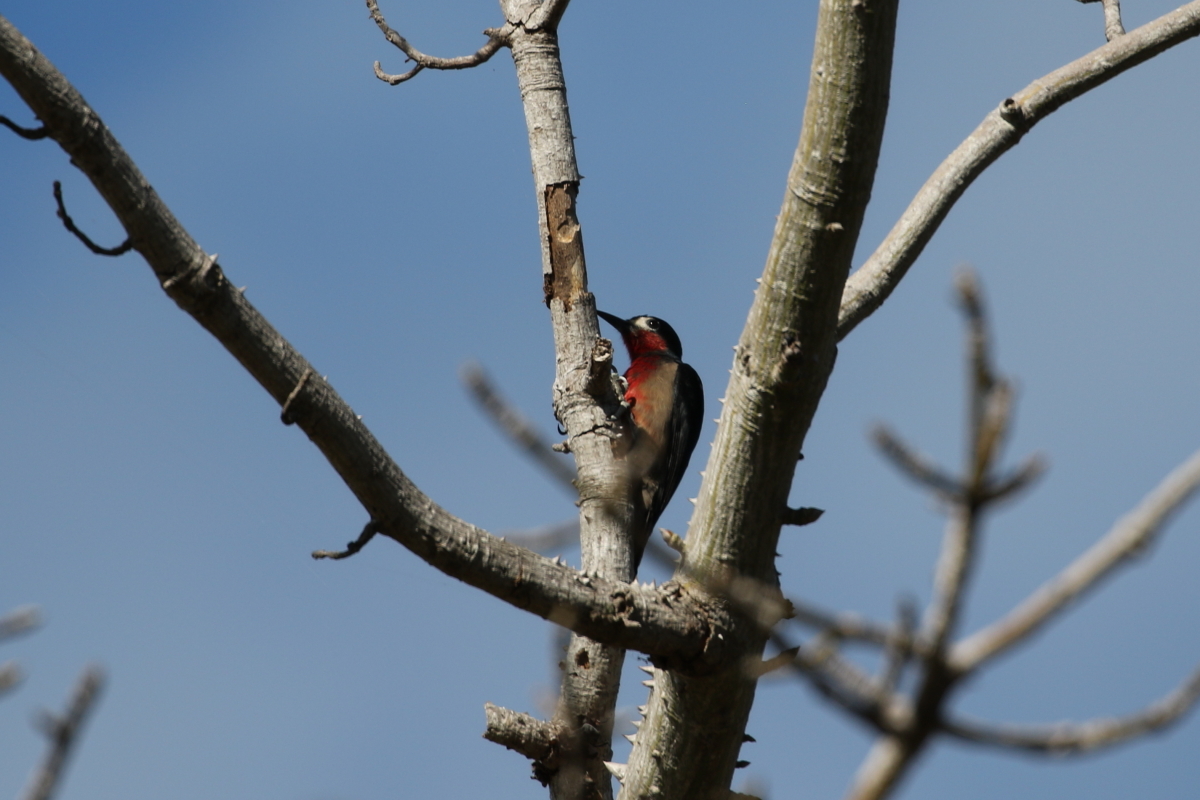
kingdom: Animalia
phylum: Chordata
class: Aves
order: Piciformes
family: Picidae
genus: Melanerpes
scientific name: Melanerpes portoricensis
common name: Puerto rican woodpecker
